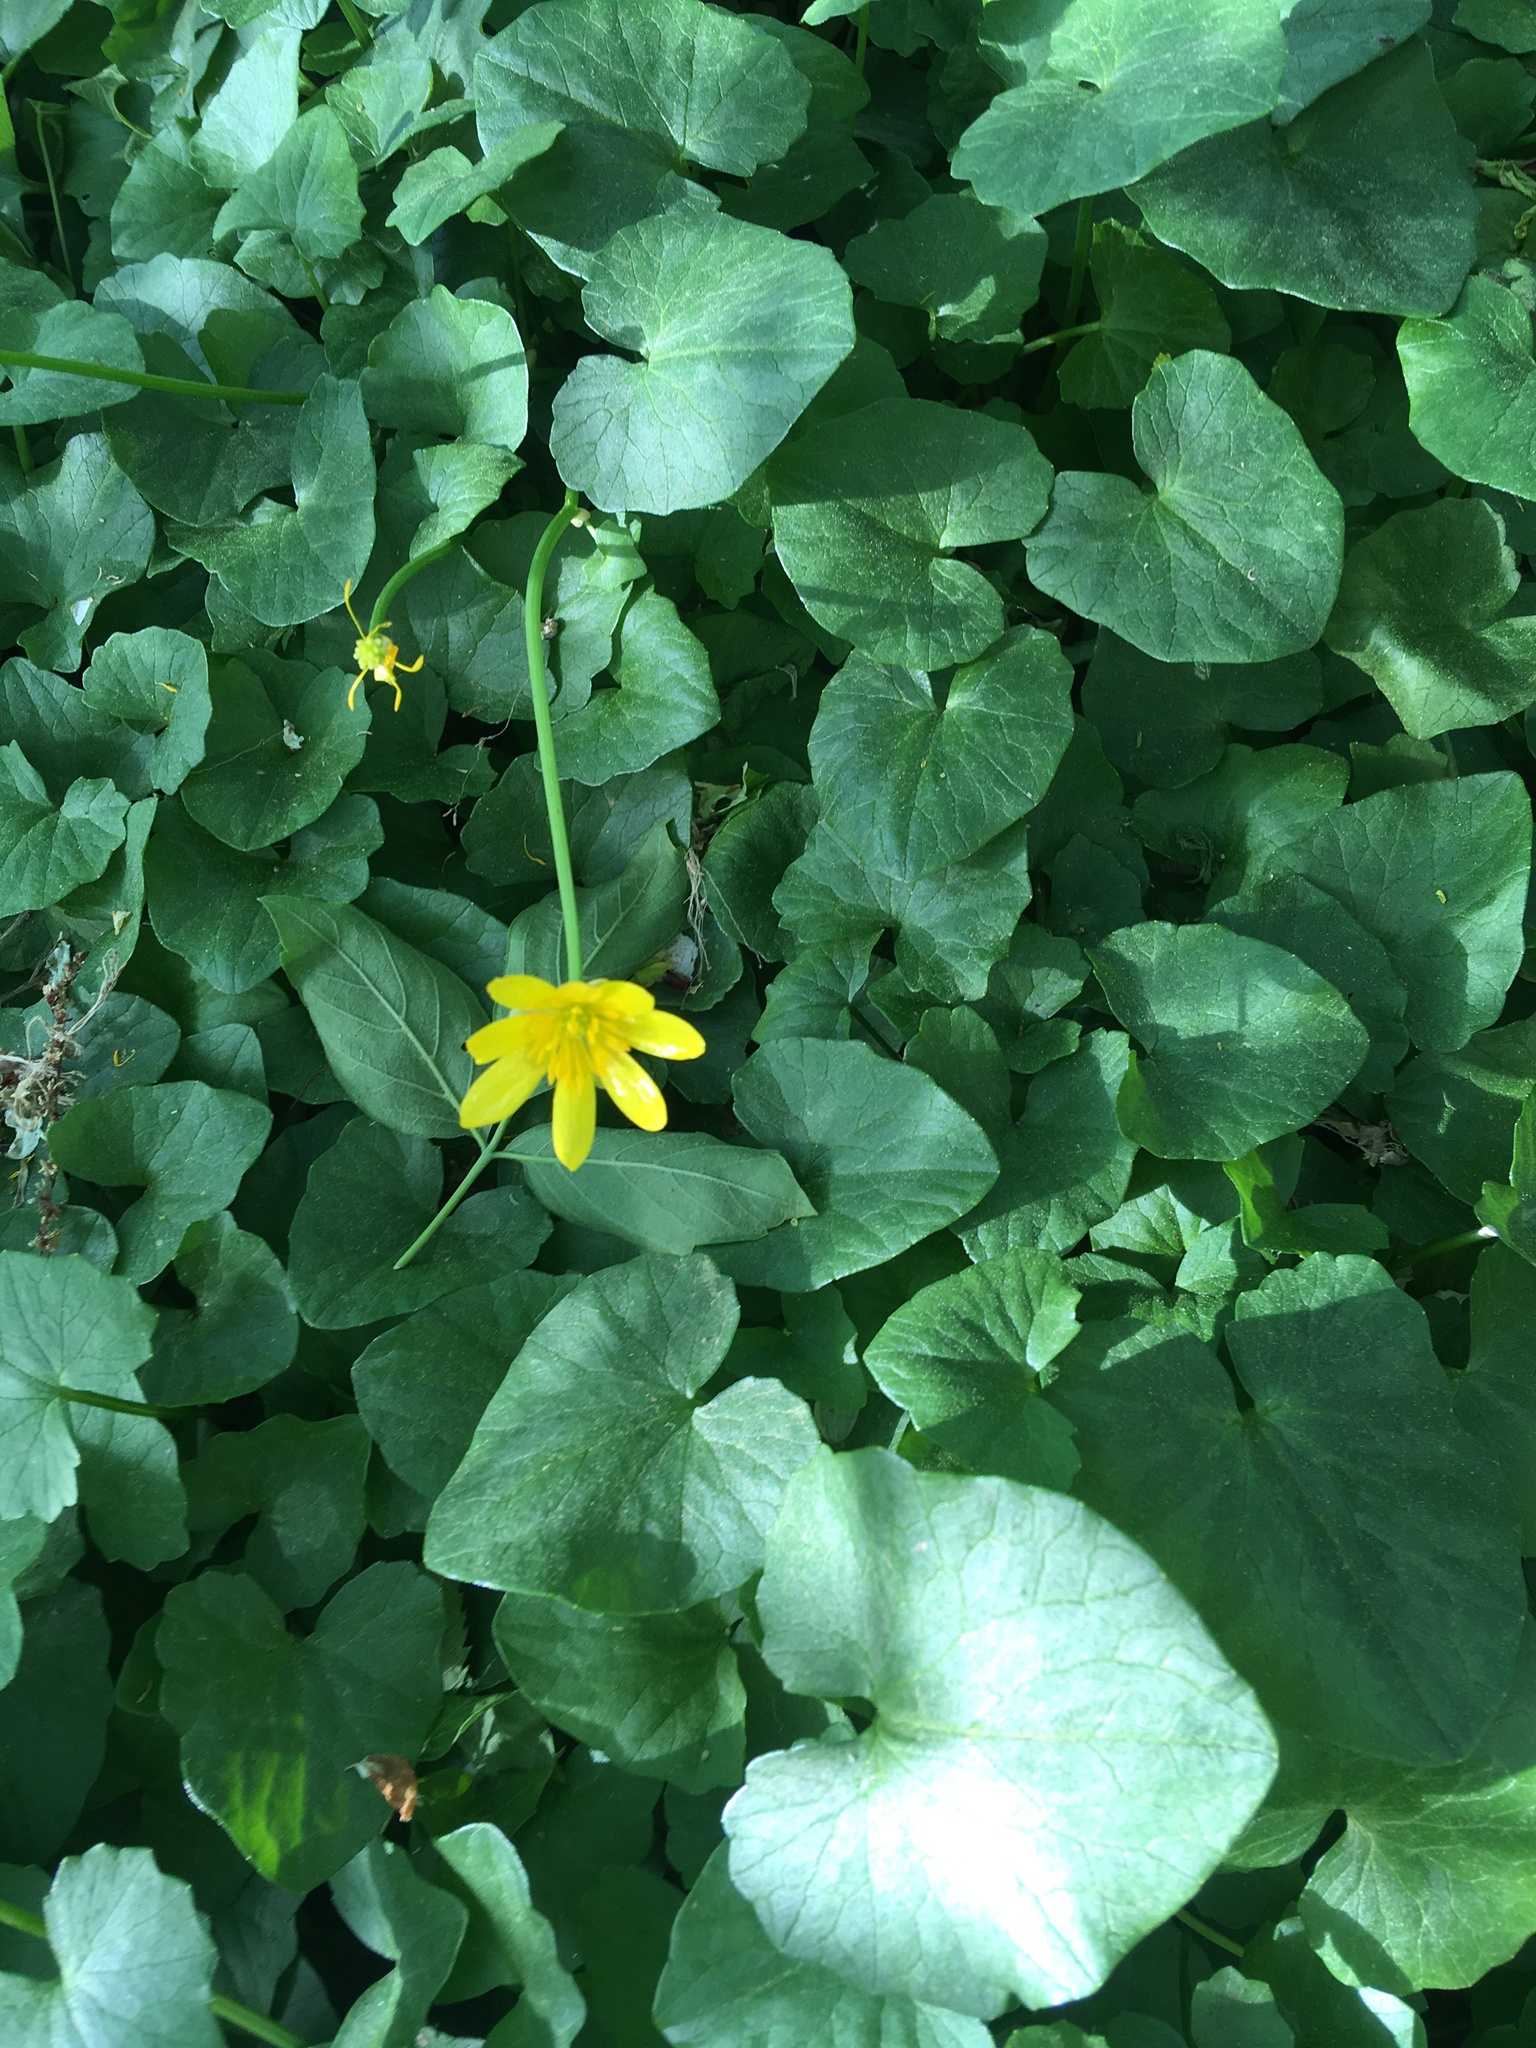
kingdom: Plantae
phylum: Tracheophyta
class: Magnoliopsida
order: Ranunculales
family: Ranunculaceae
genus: Ficaria
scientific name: Ficaria verna
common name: Lesser celandine
